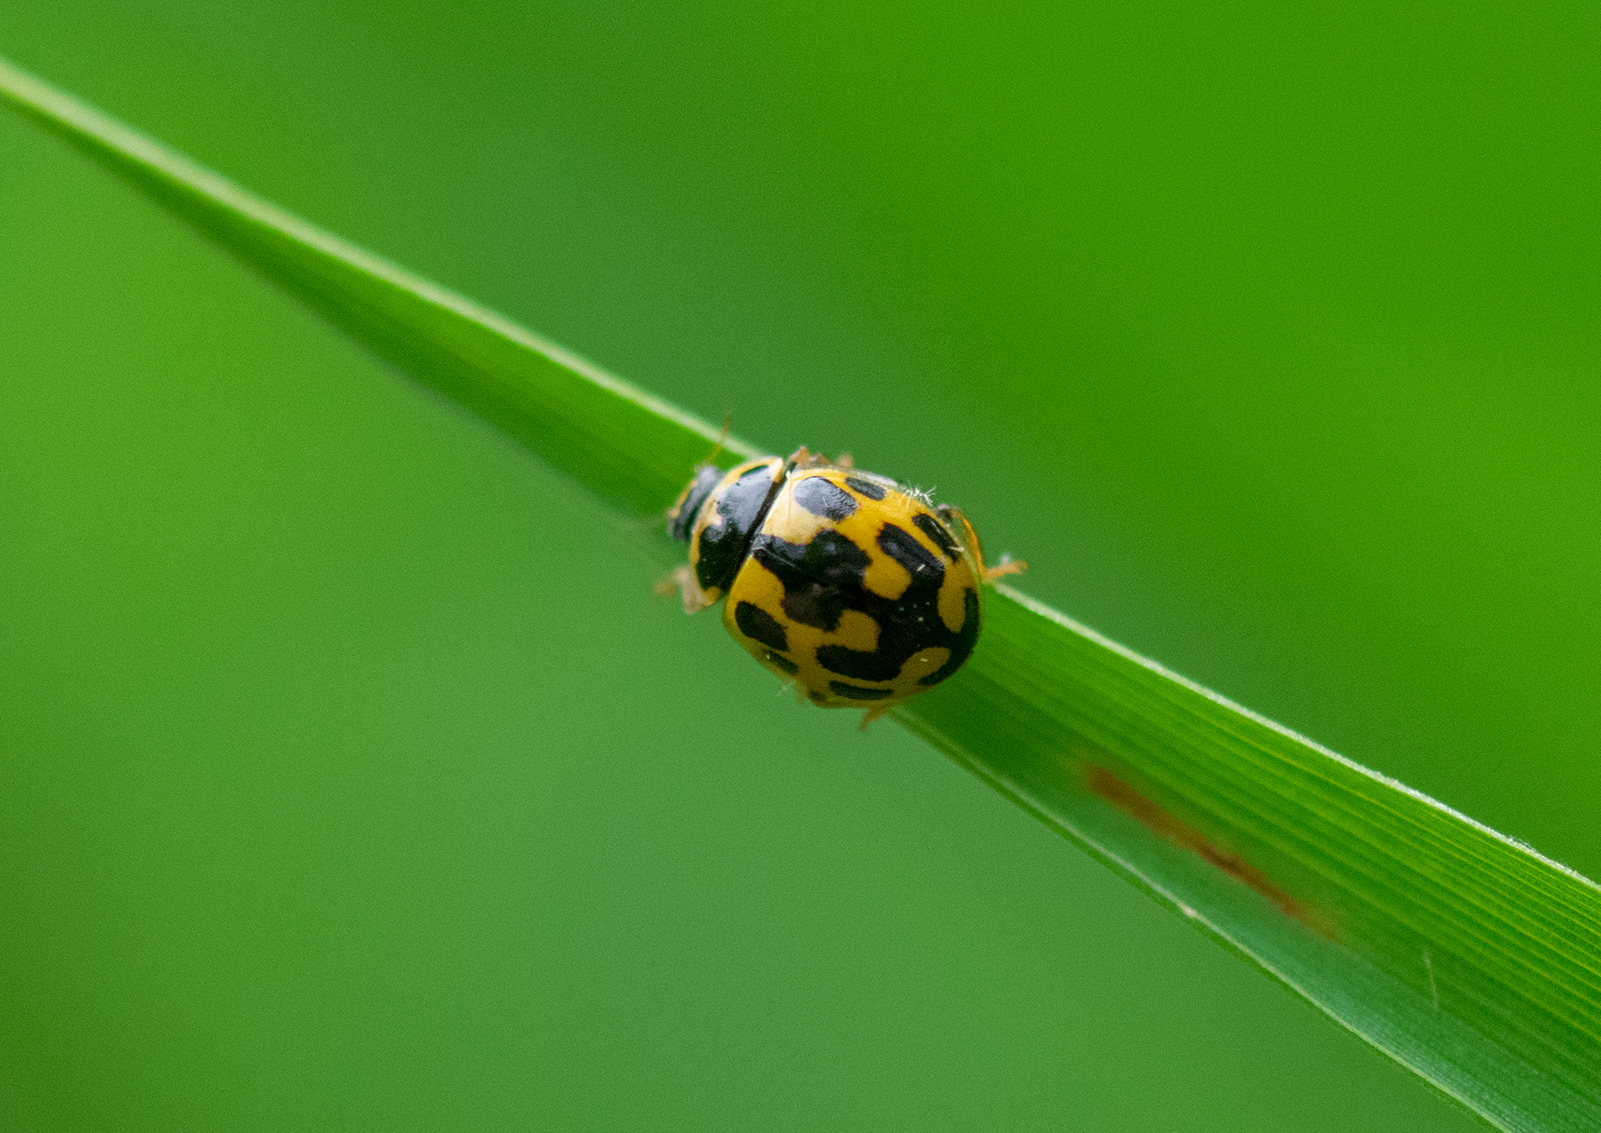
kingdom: Animalia
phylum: Arthropoda
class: Insecta
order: Coleoptera
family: Coccinellidae
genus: Propylaea
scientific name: Propylaea quatuordecimpunctata
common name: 14-spotted ladybird beetle
